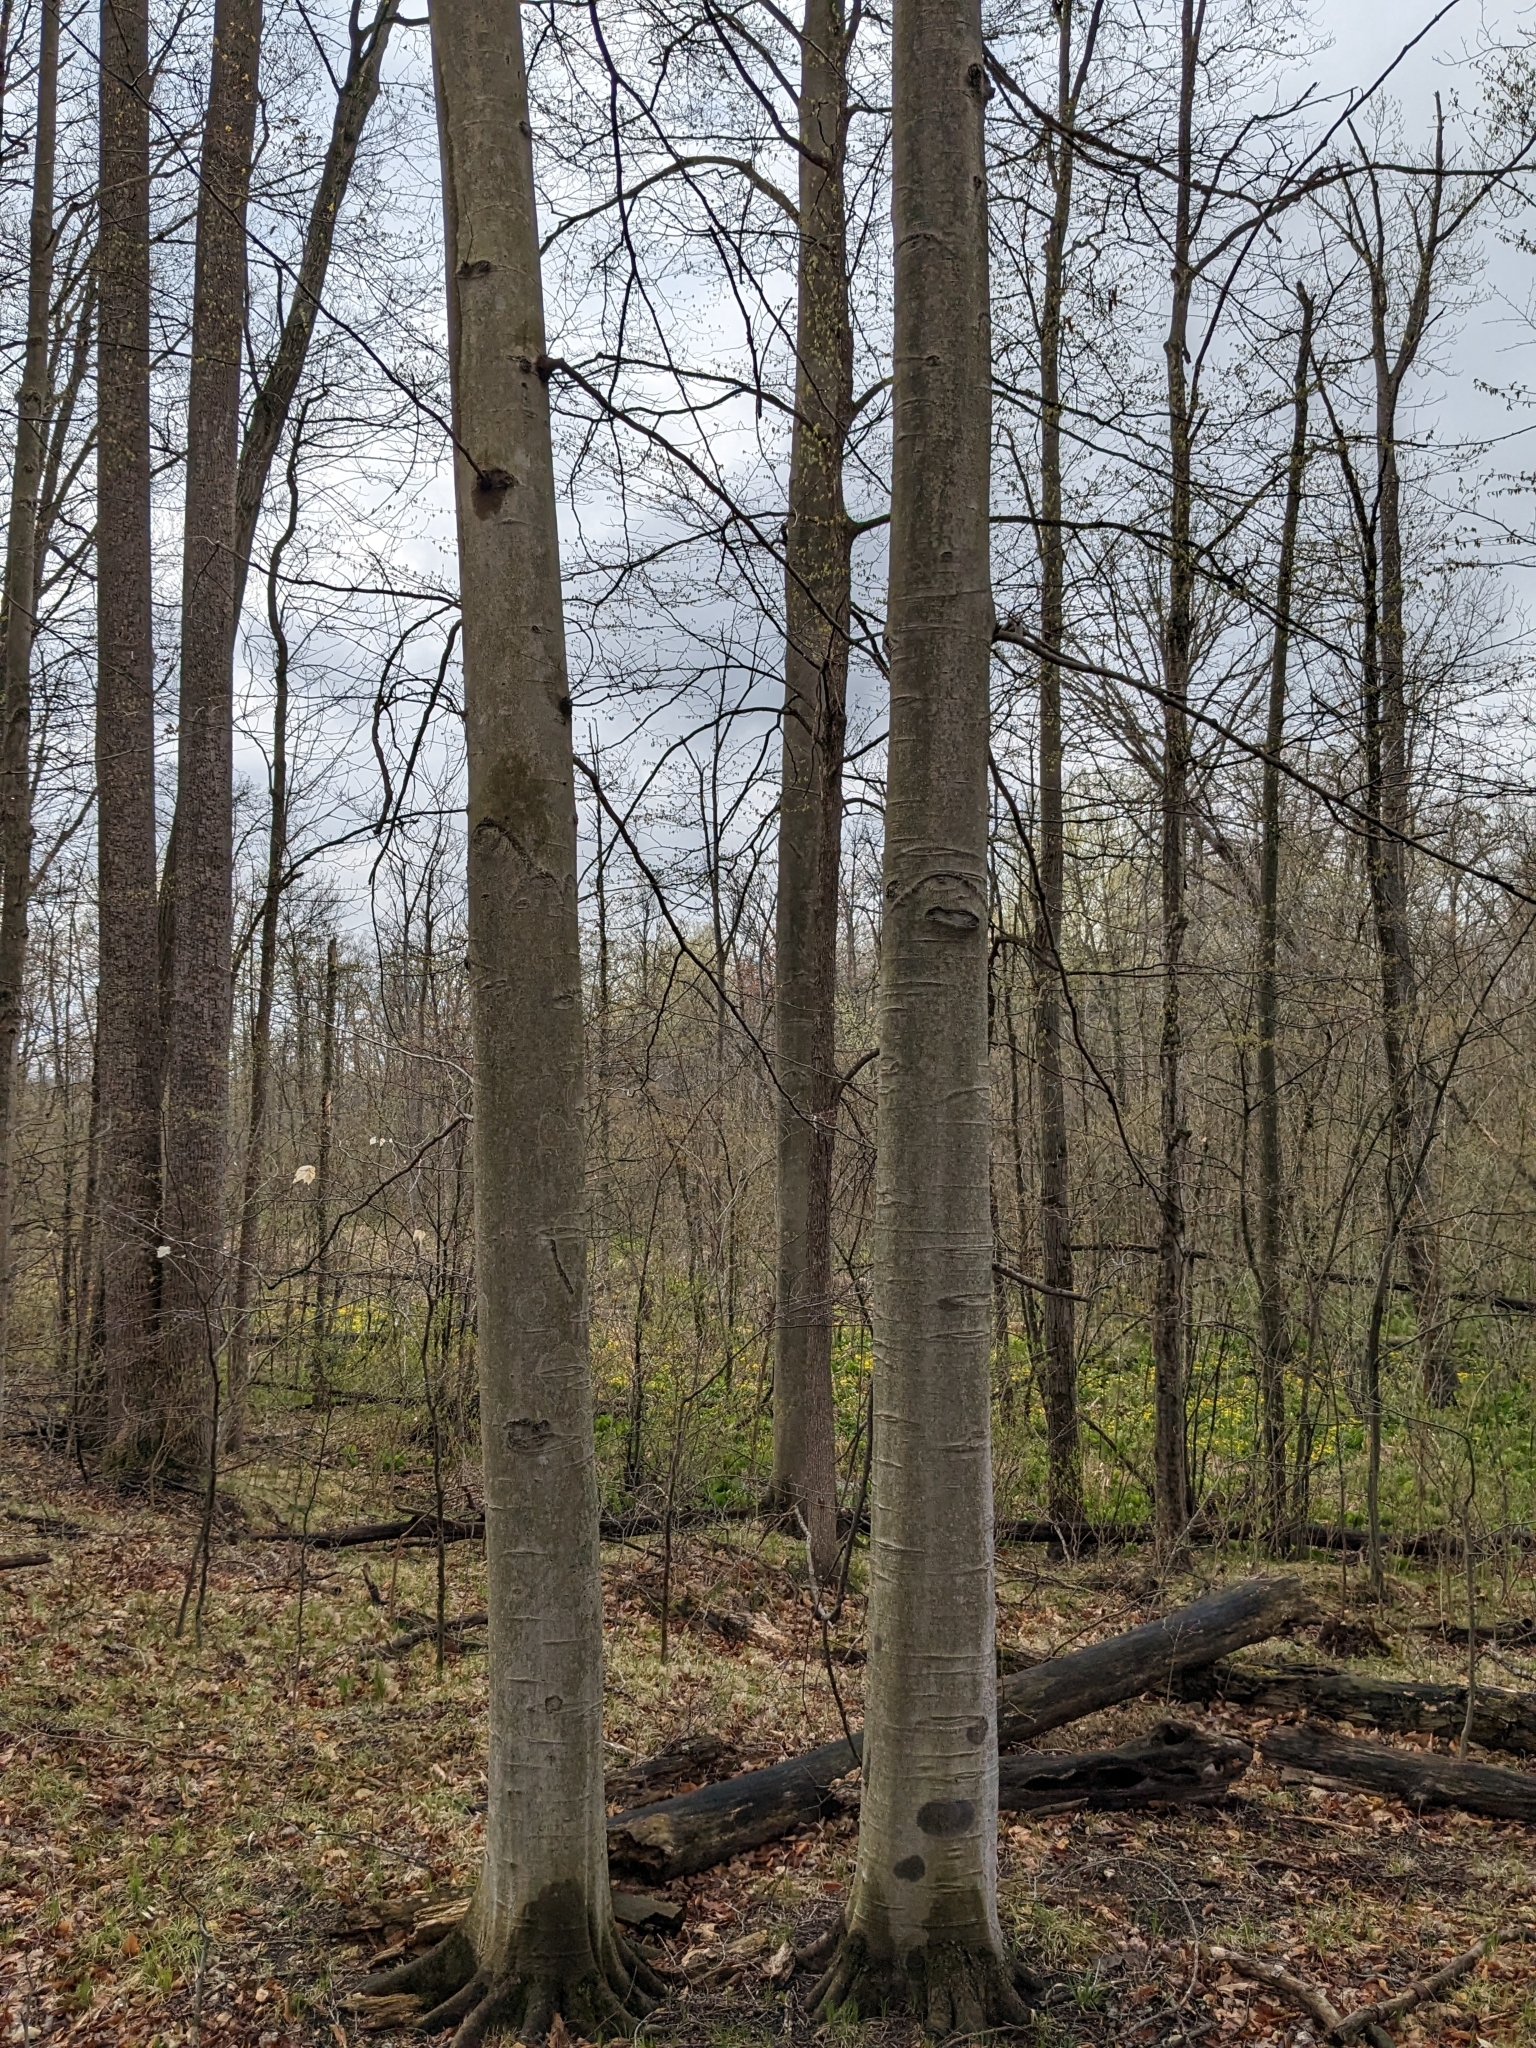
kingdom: Plantae
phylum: Tracheophyta
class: Magnoliopsida
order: Fagales
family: Fagaceae
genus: Fagus
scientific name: Fagus grandifolia
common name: American beech
